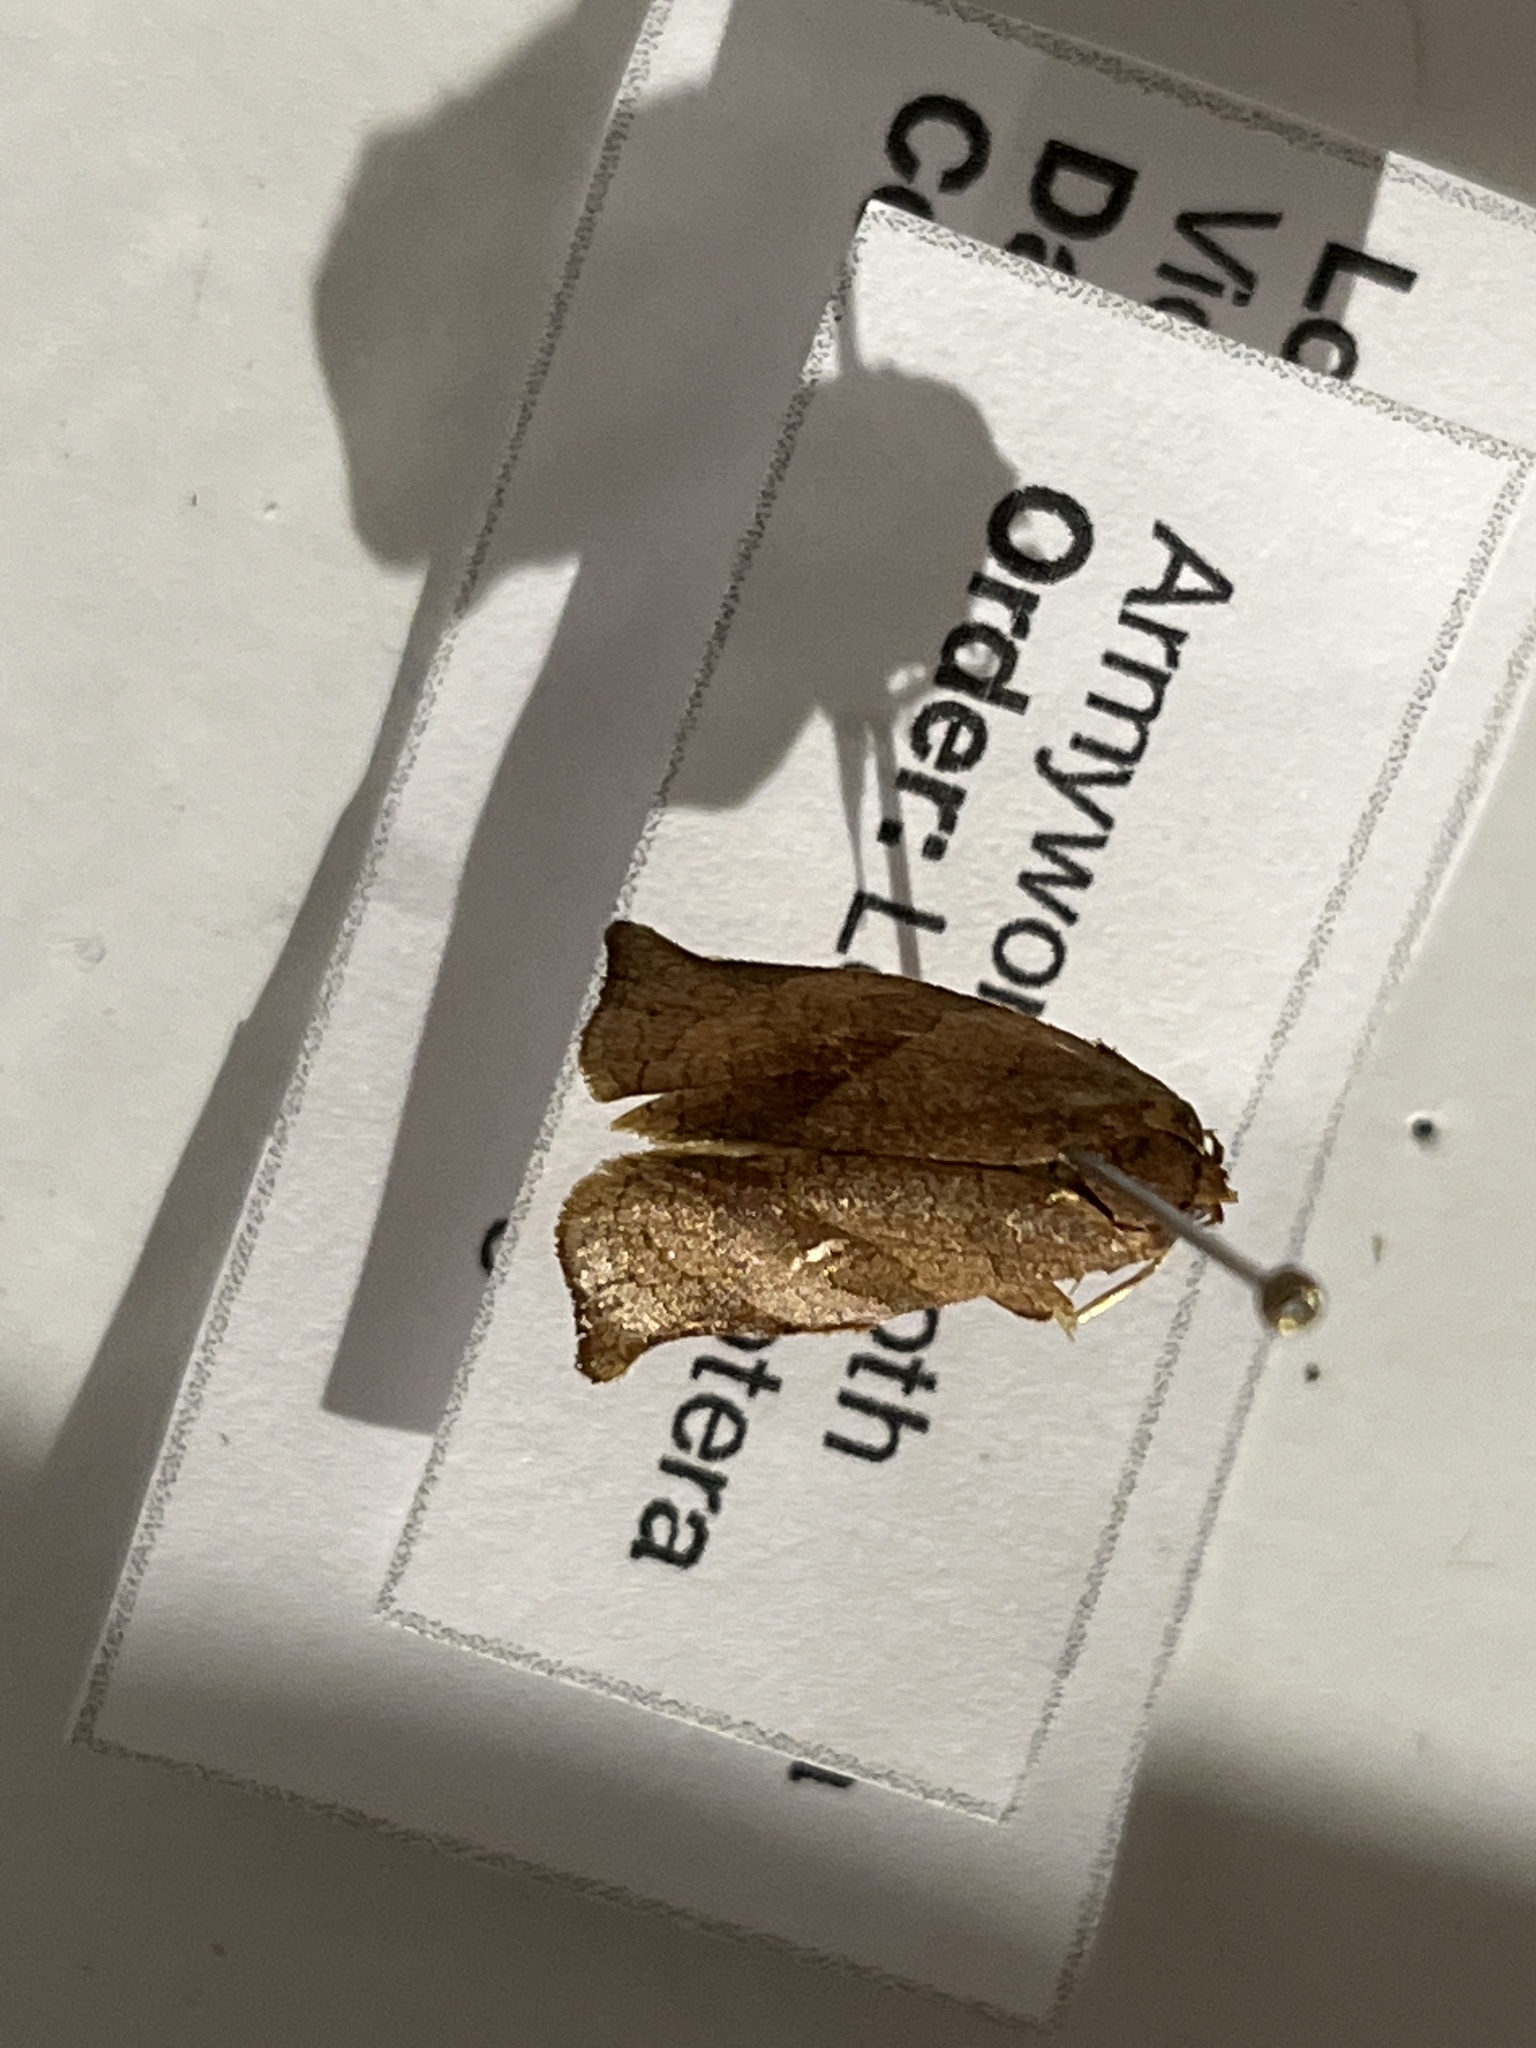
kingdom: Animalia
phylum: Arthropoda
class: Insecta
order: Lepidoptera
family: Tortricidae
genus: Choristoneura
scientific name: Choristoneura rosaceana
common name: Oblique-banded leafroller moth
